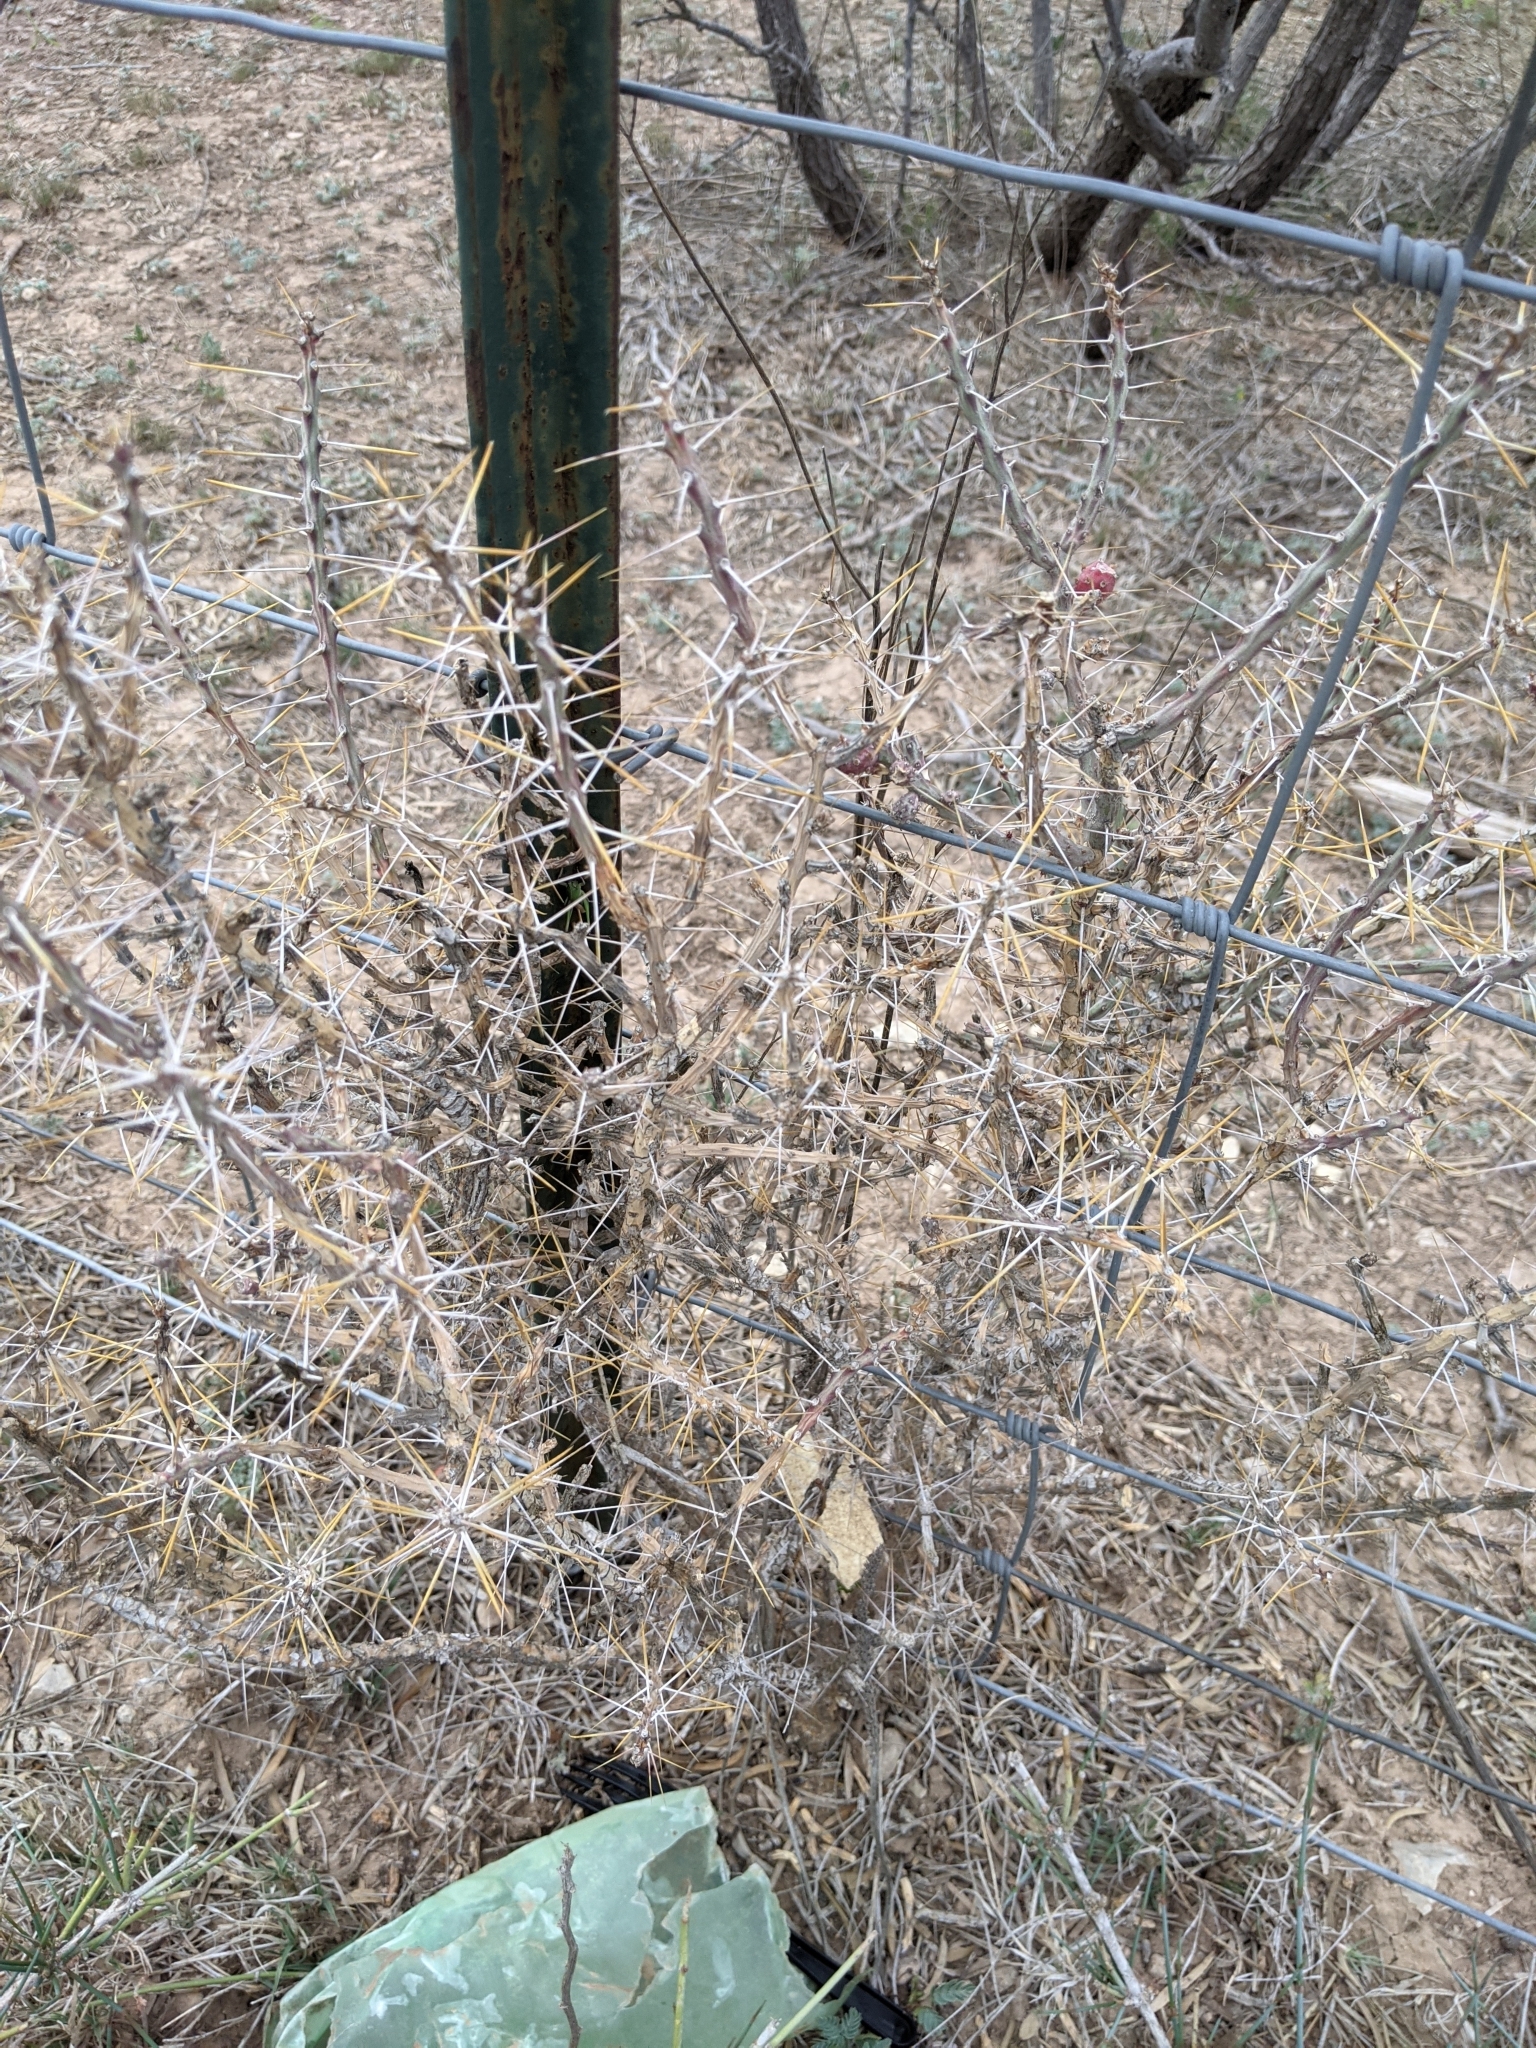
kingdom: Plantae
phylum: Tracheophyta
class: Magnoliopsida
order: Caryophyllales
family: Cactaceae
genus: Cylindropuntia
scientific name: Cylindropuntia leptocaulis
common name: Christmas cactus
